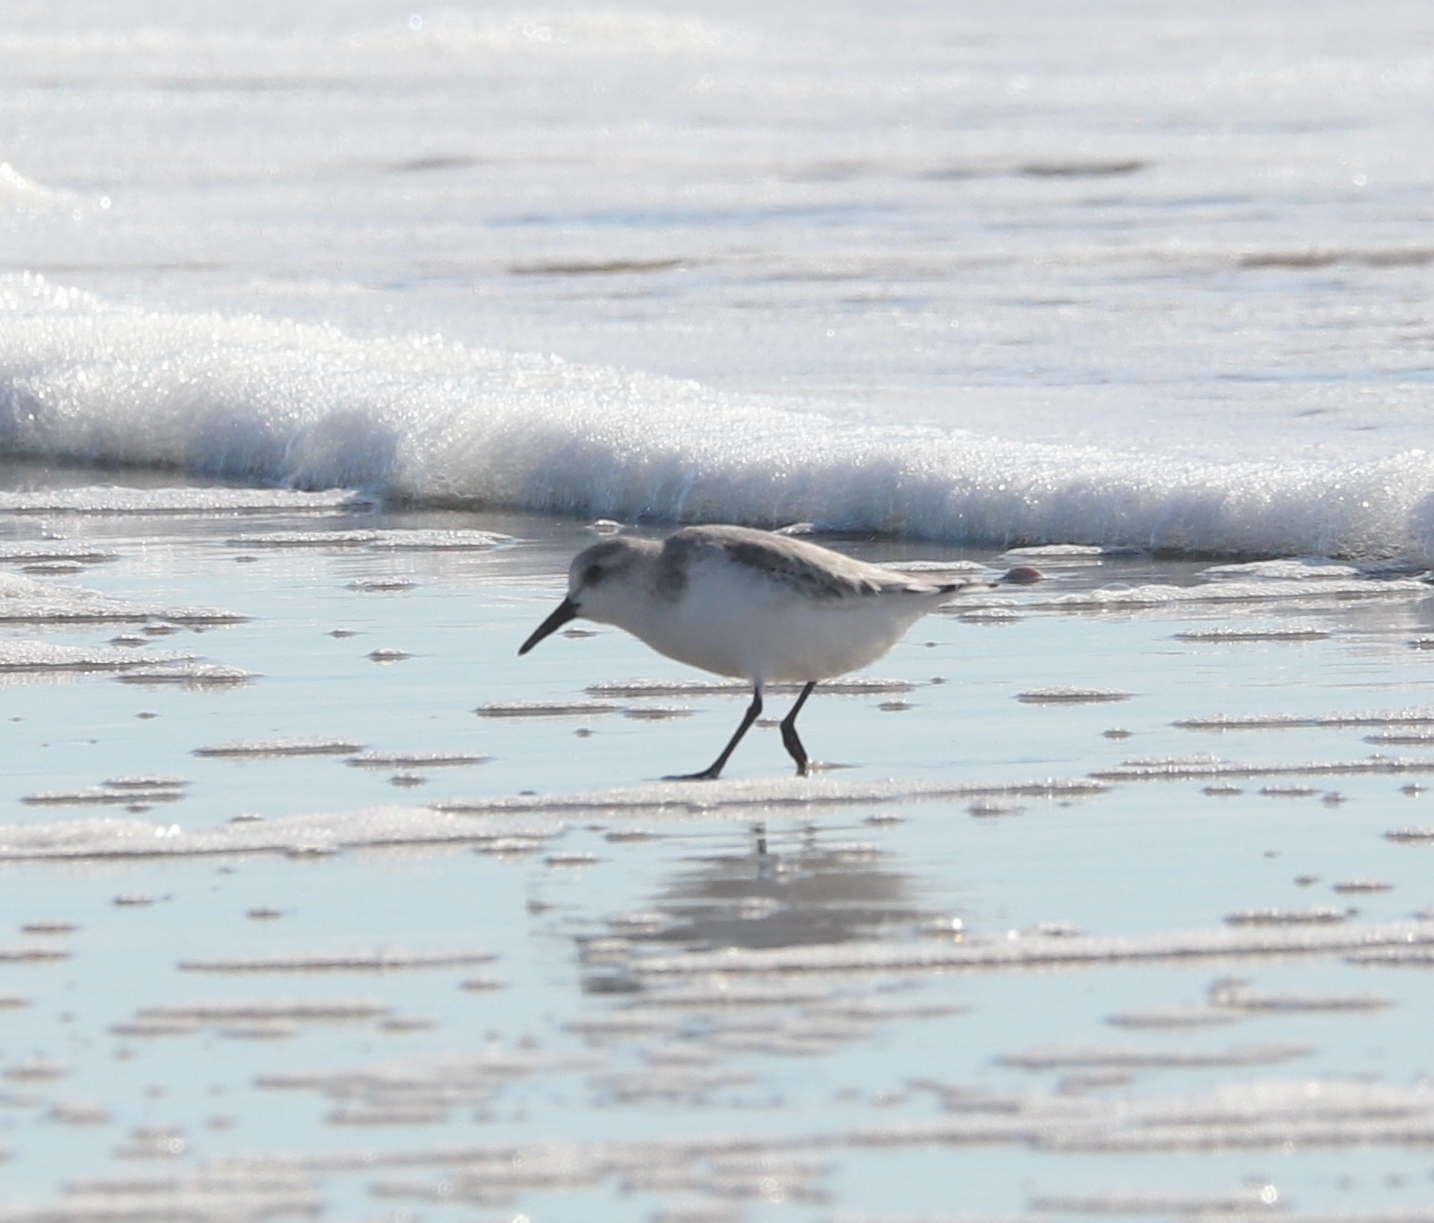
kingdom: Animalia
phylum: Chordata
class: Aves
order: Charadriiformes
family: Scolopacidae
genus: Calidris
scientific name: Calidris alba
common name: Sanderling
